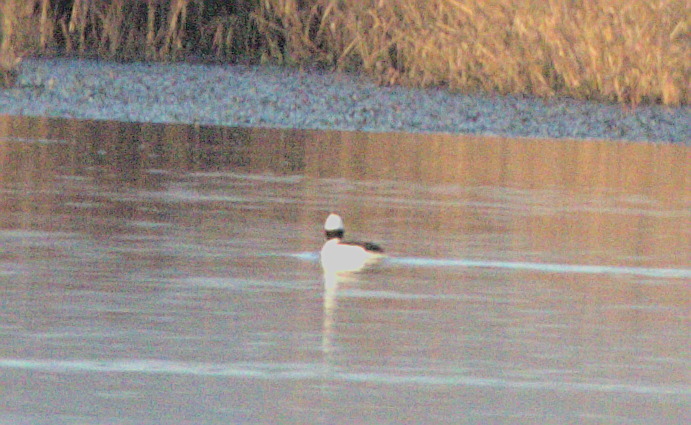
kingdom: Animalia
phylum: Chordata
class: Aves
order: Anseriformes
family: Anatidae
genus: Bucephala
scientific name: Bucephala albeola
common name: Bufflehead
